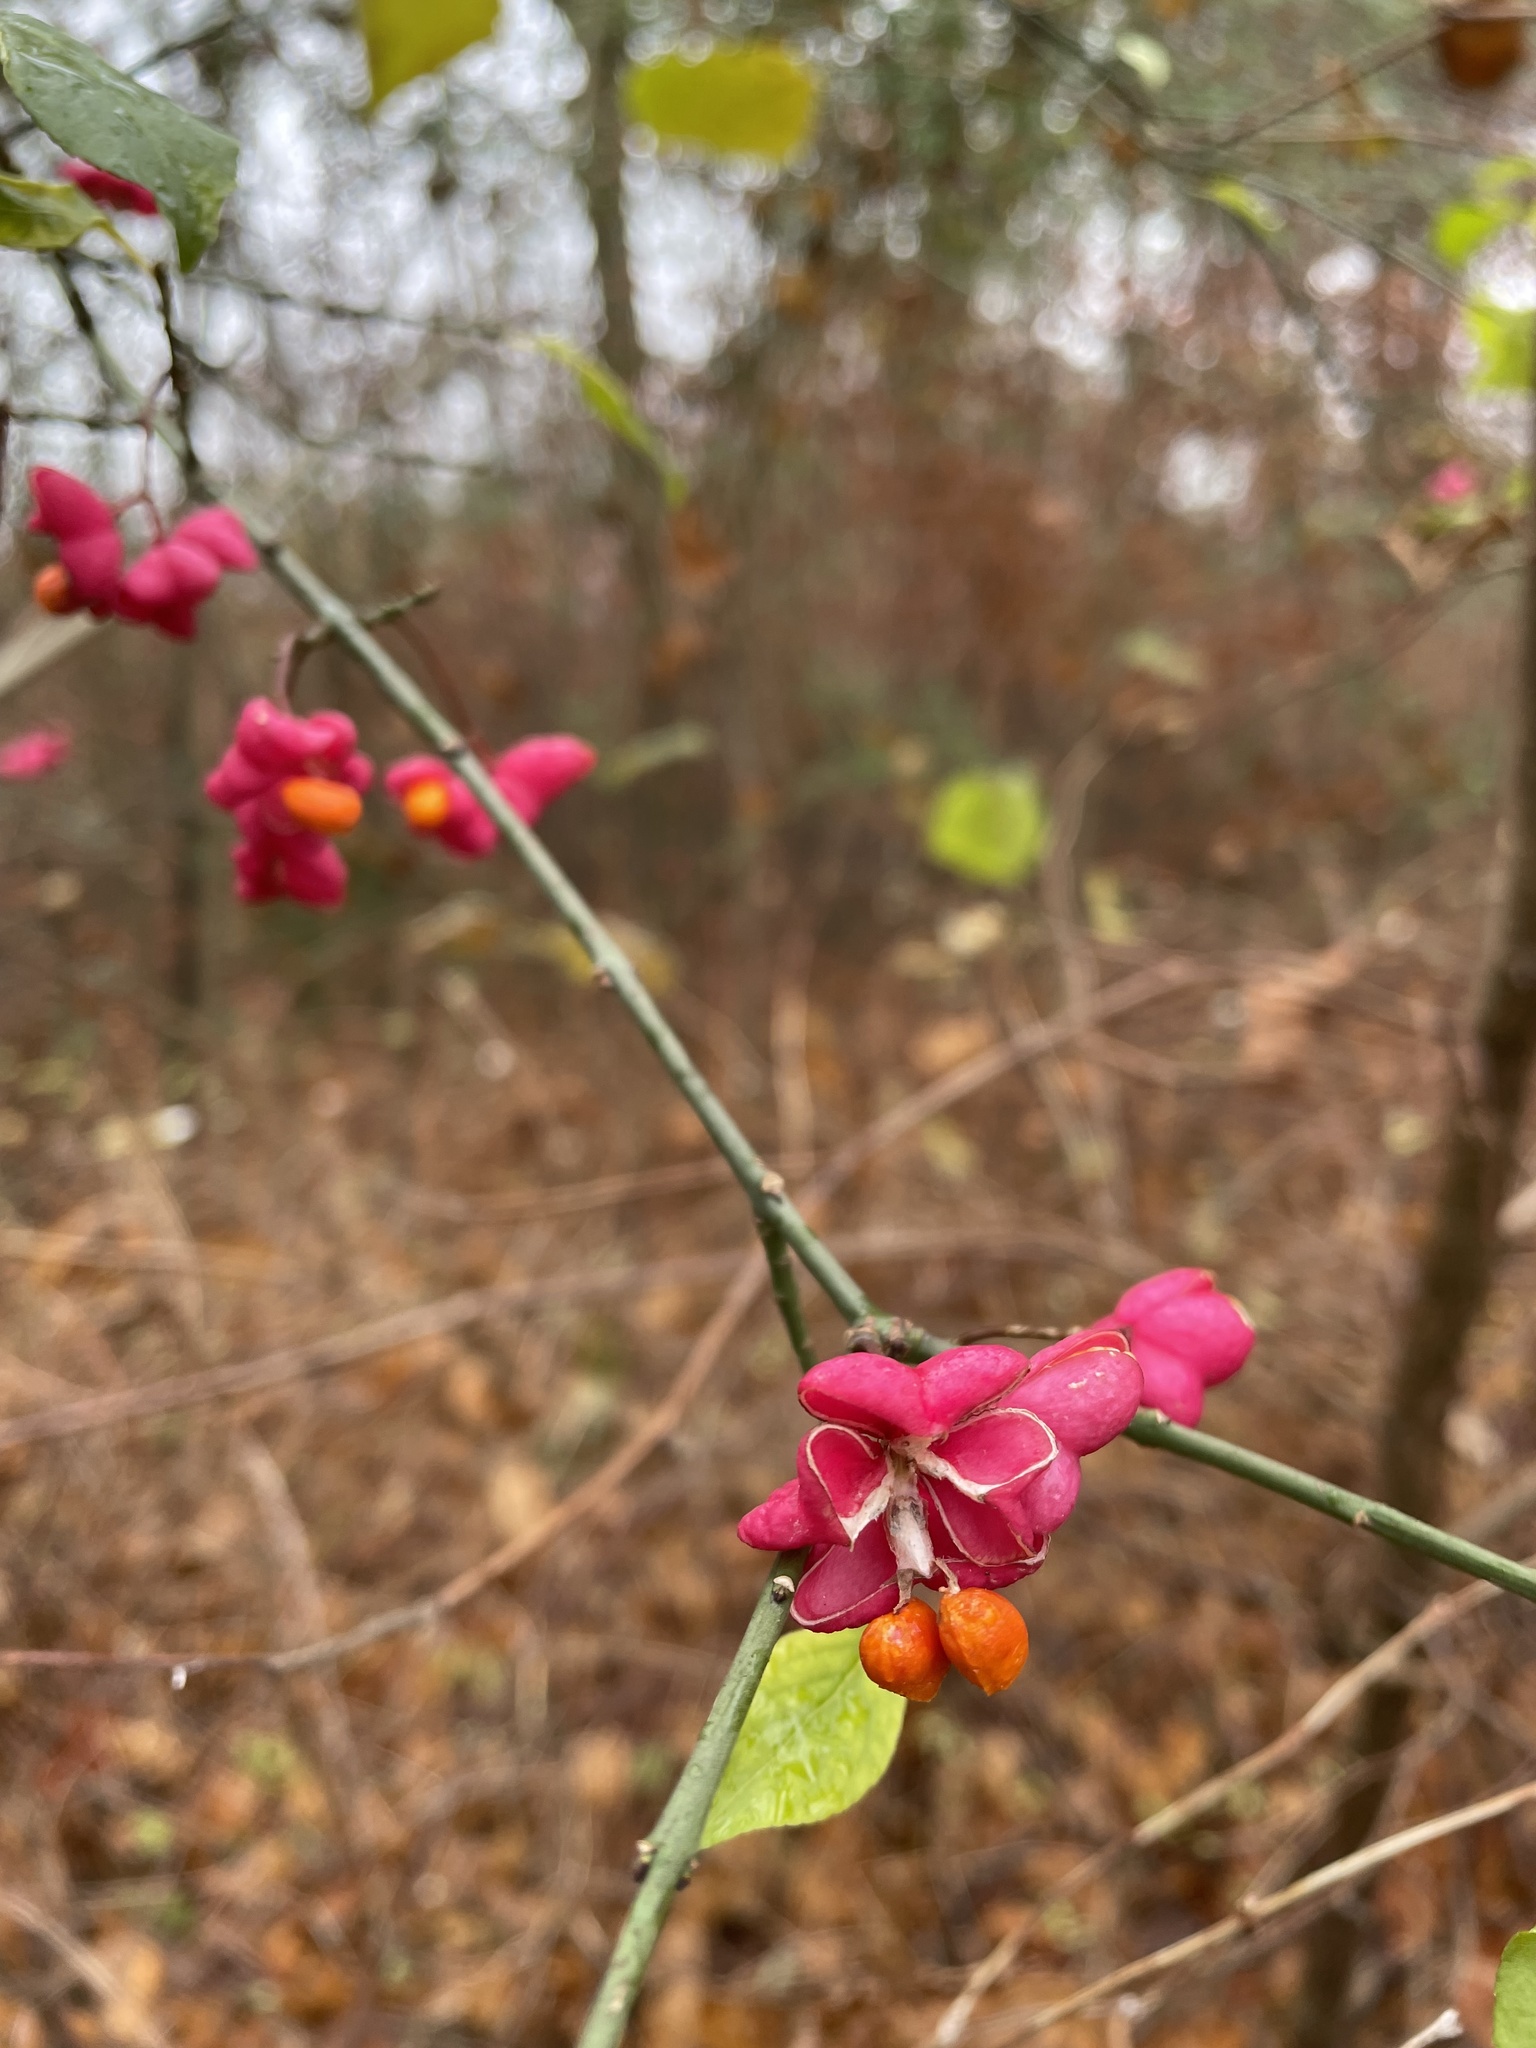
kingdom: Plantae
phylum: Tracheophyta
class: Magnoliopsida
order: Celastrales
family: Celastraceae
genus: Euonymus
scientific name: Euonymus europaeus
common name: Spindle
